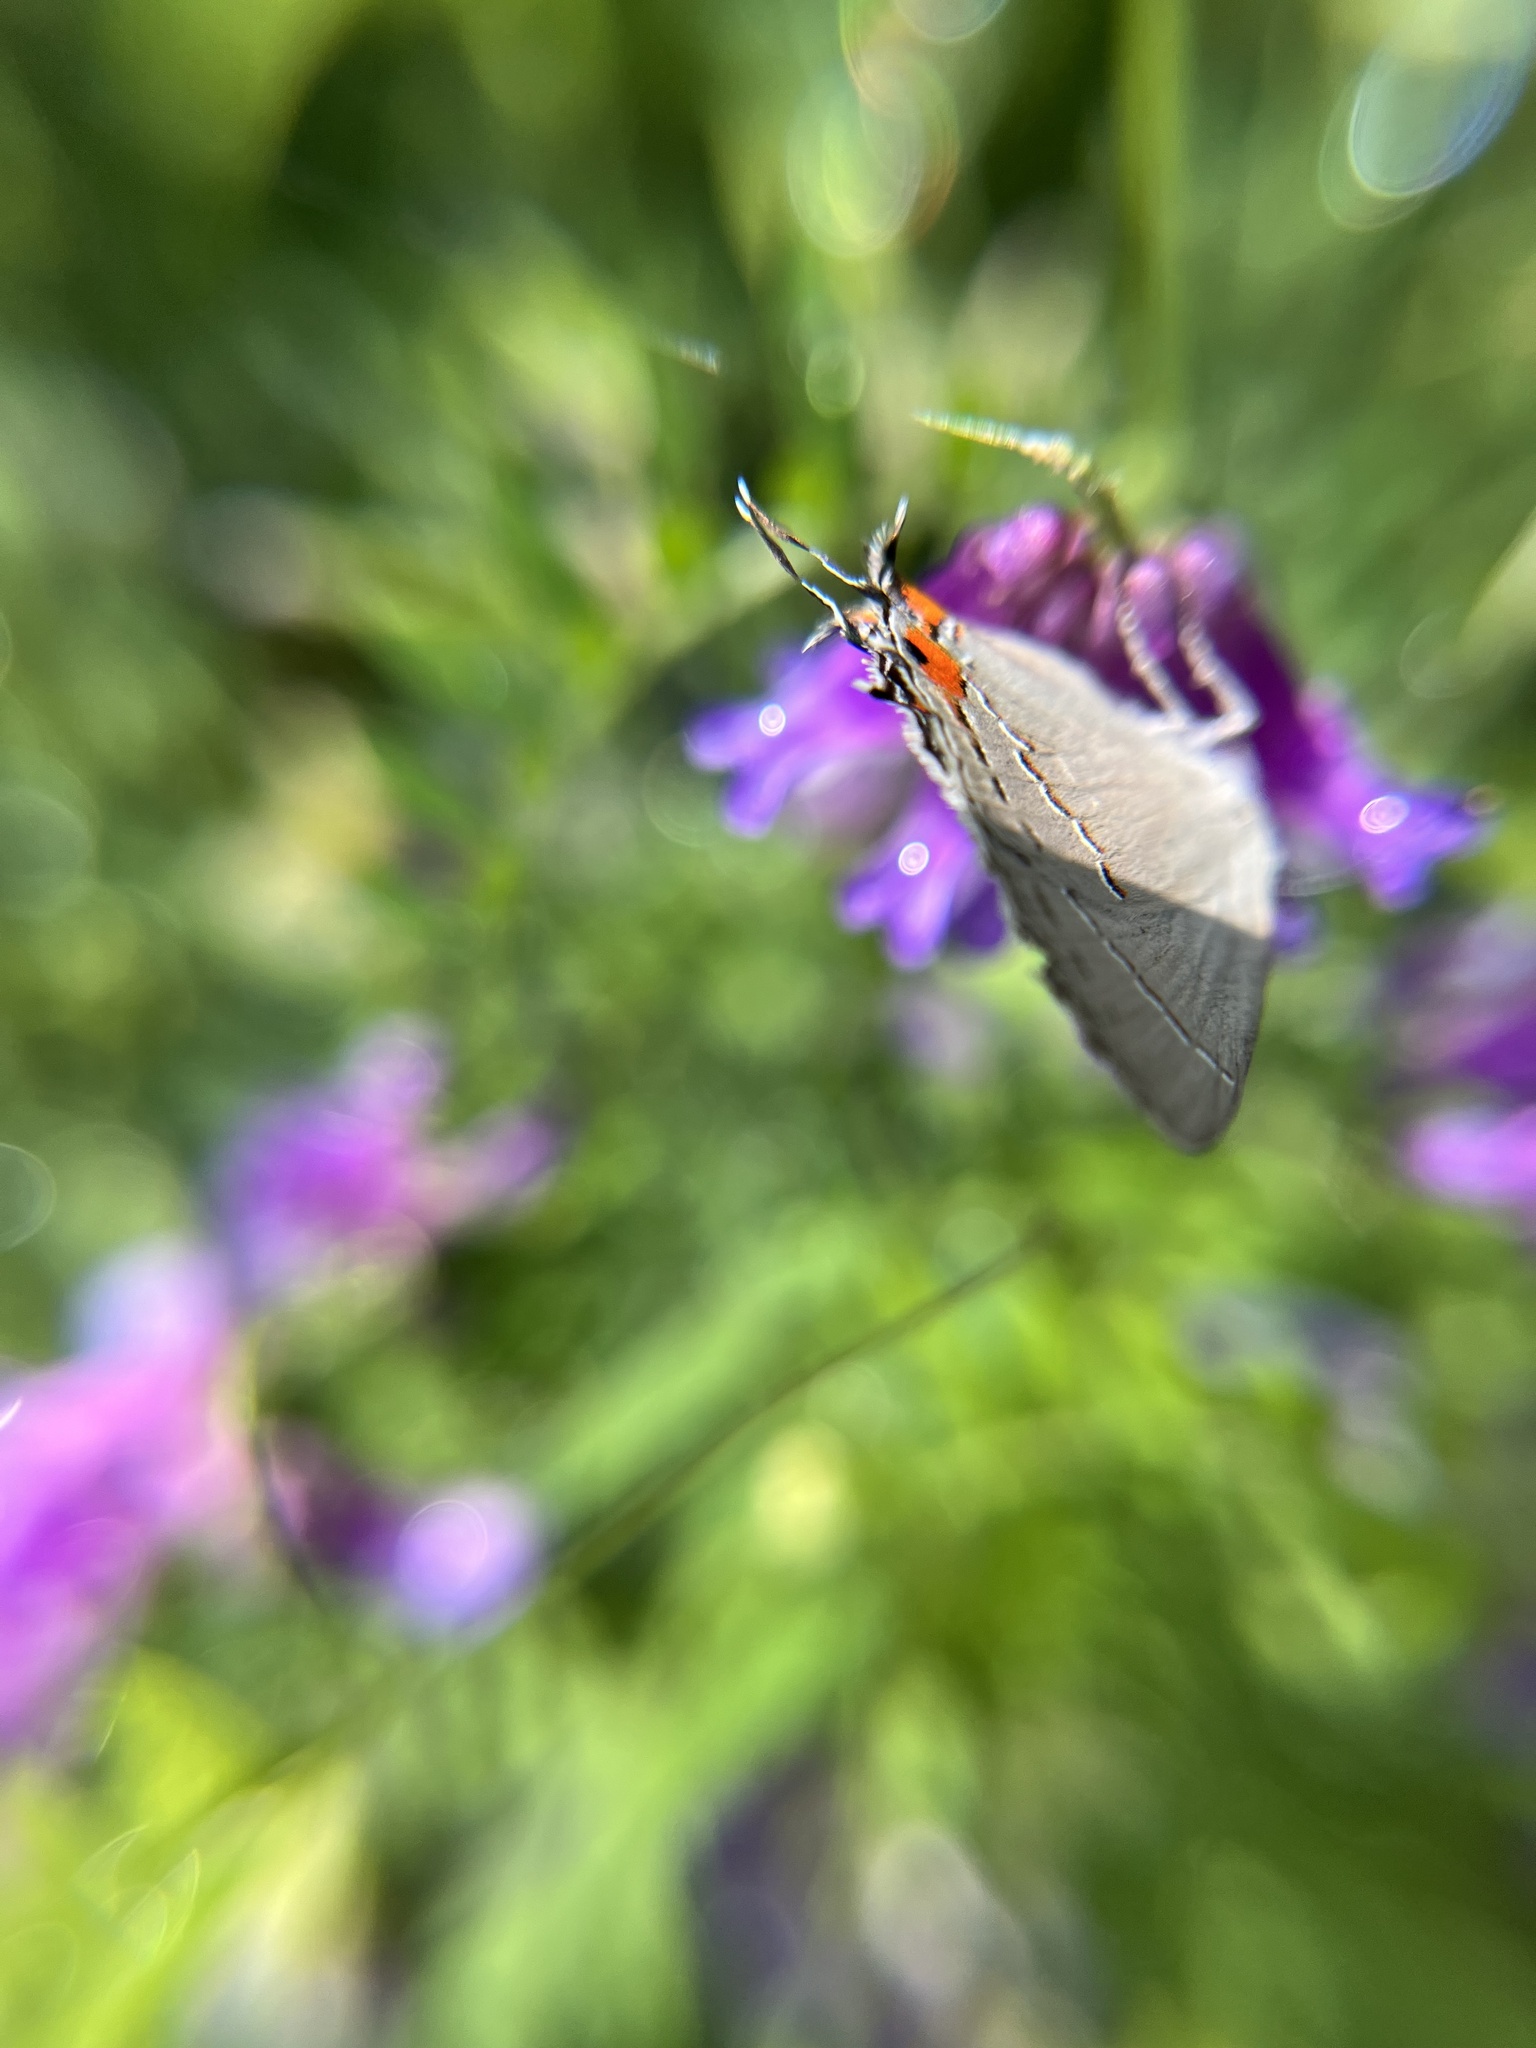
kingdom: Animalia
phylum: Arthropoda
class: Insecta
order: Lepidoptera
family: Lycaenidae
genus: Strymon
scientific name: Strymon melinus
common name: Gray hairstreak
